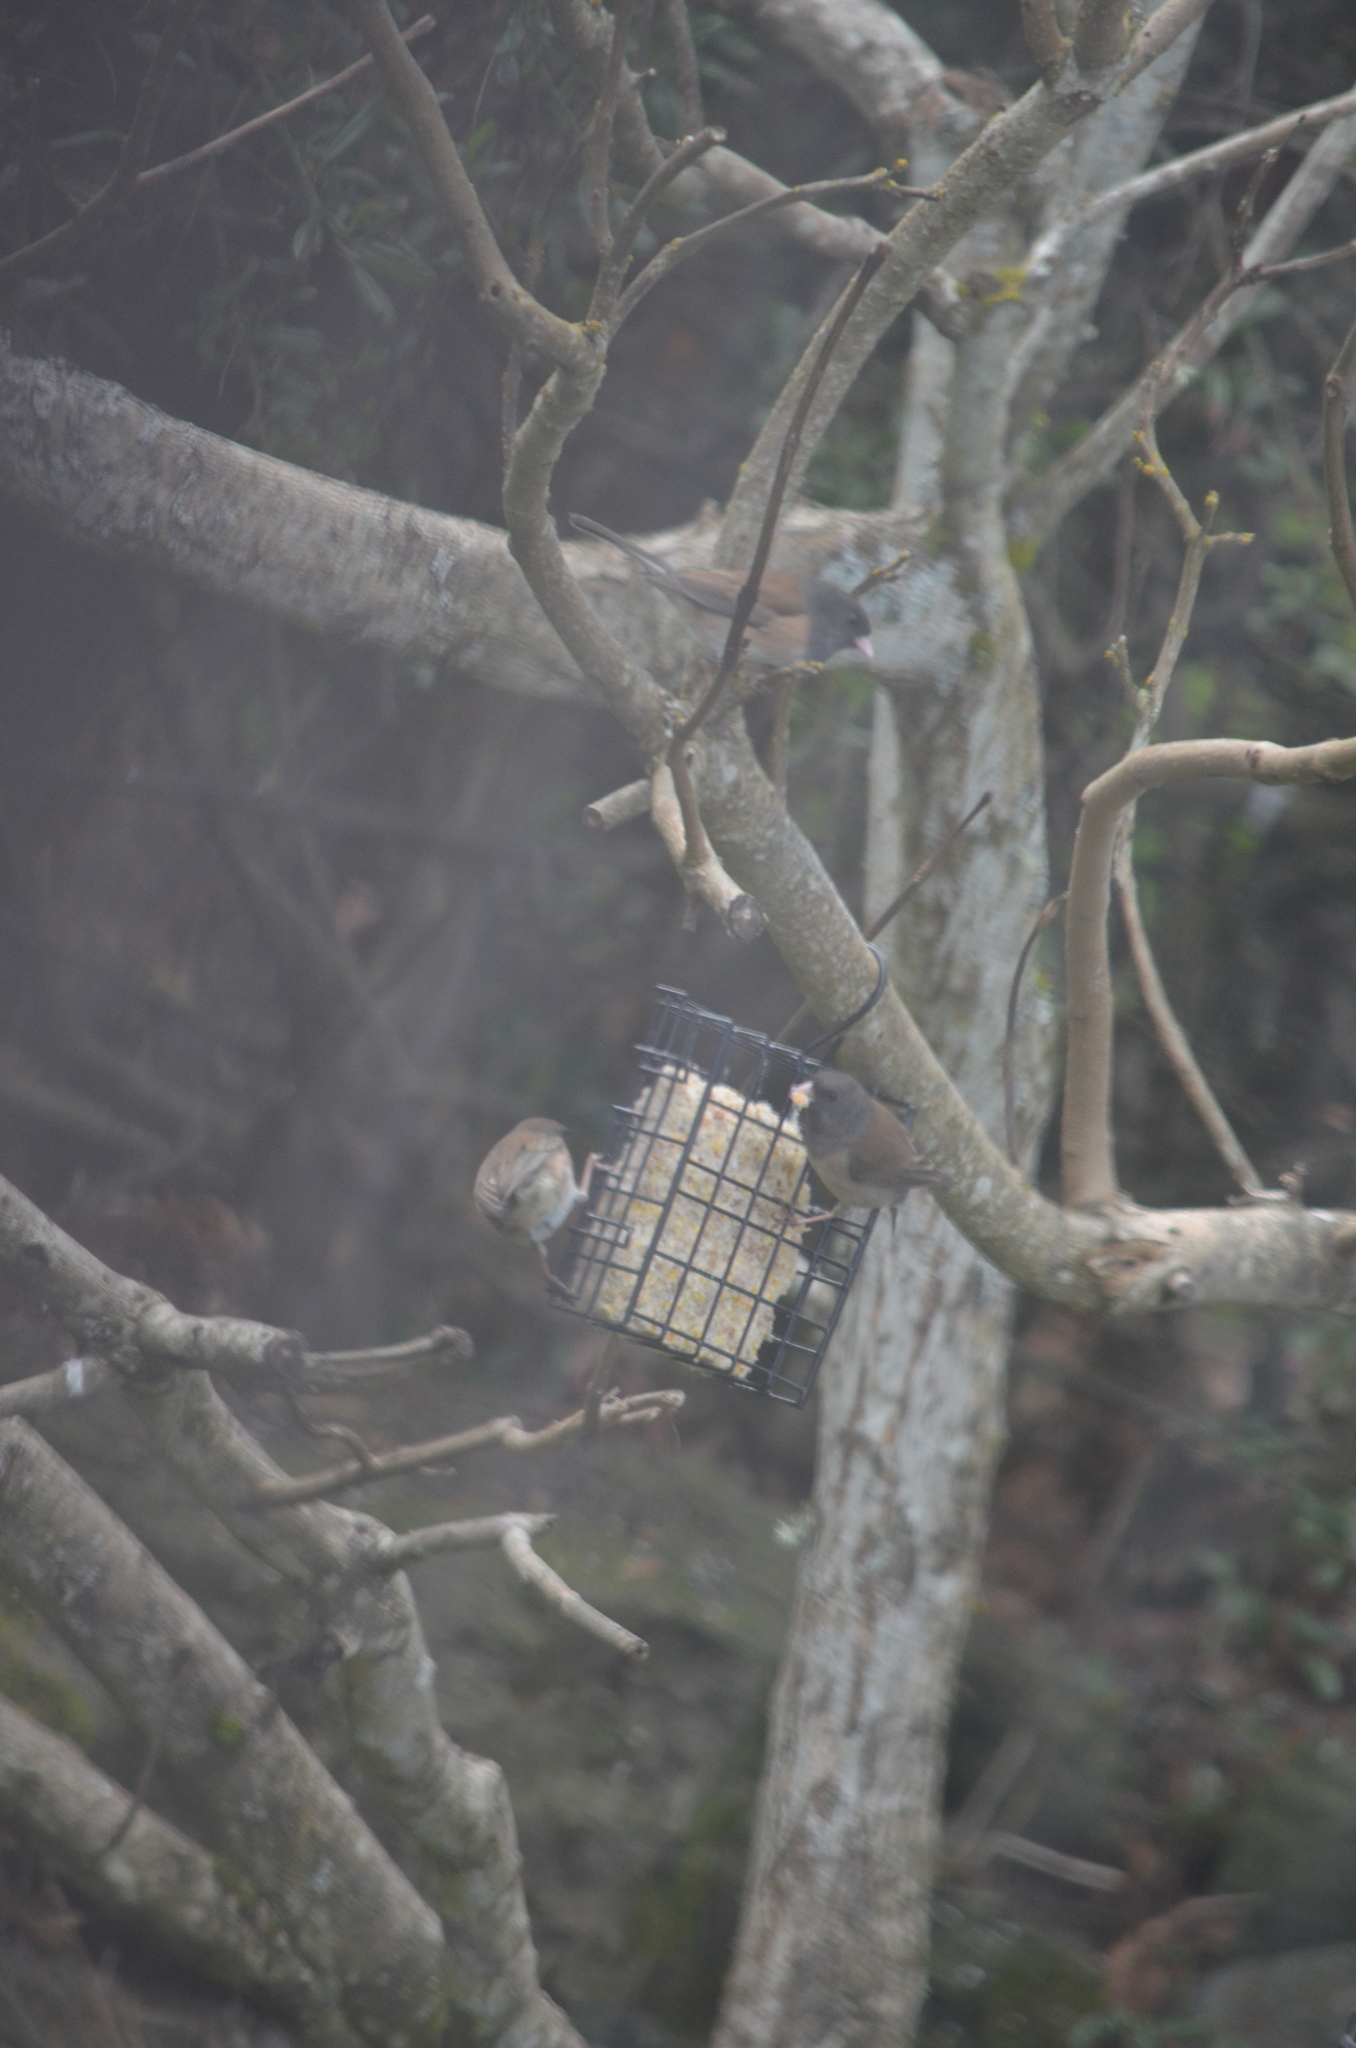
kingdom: Animalia
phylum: Chordata
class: Aves
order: Passeriformes
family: Passerellidae
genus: Junco
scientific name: Junco hyemalis
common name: Dark-eyed junco
